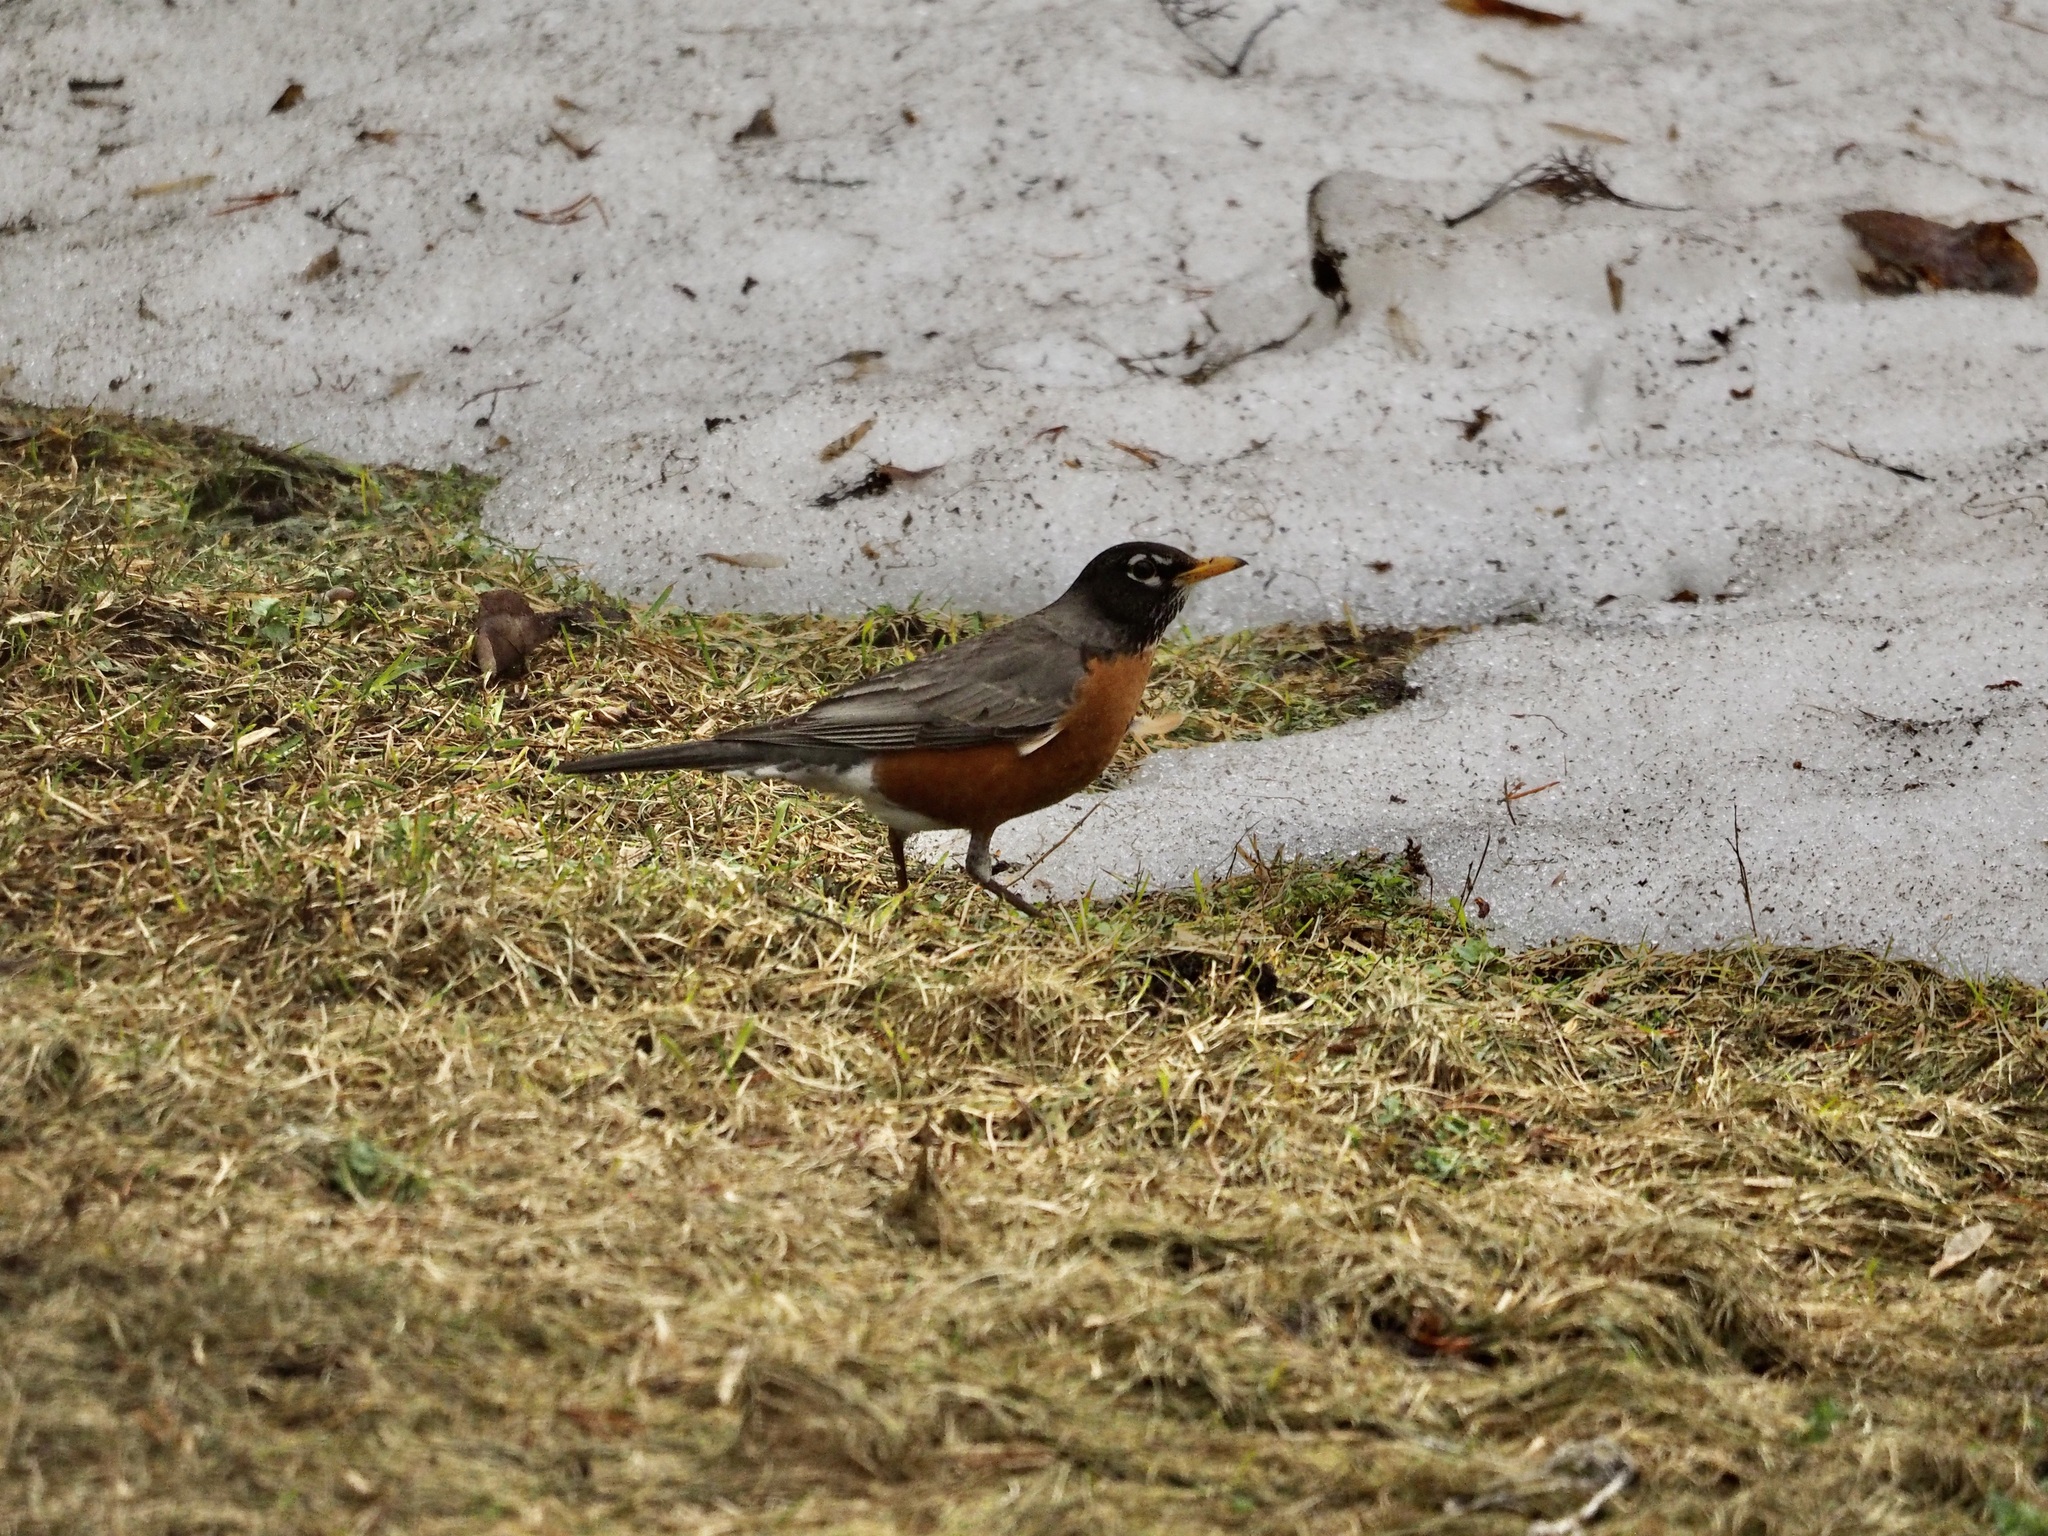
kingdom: Animalia
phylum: Chordata
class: Aves
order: Passeriformes
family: Turdidae
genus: Turdus
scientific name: Turdus migratorius
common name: American robin
